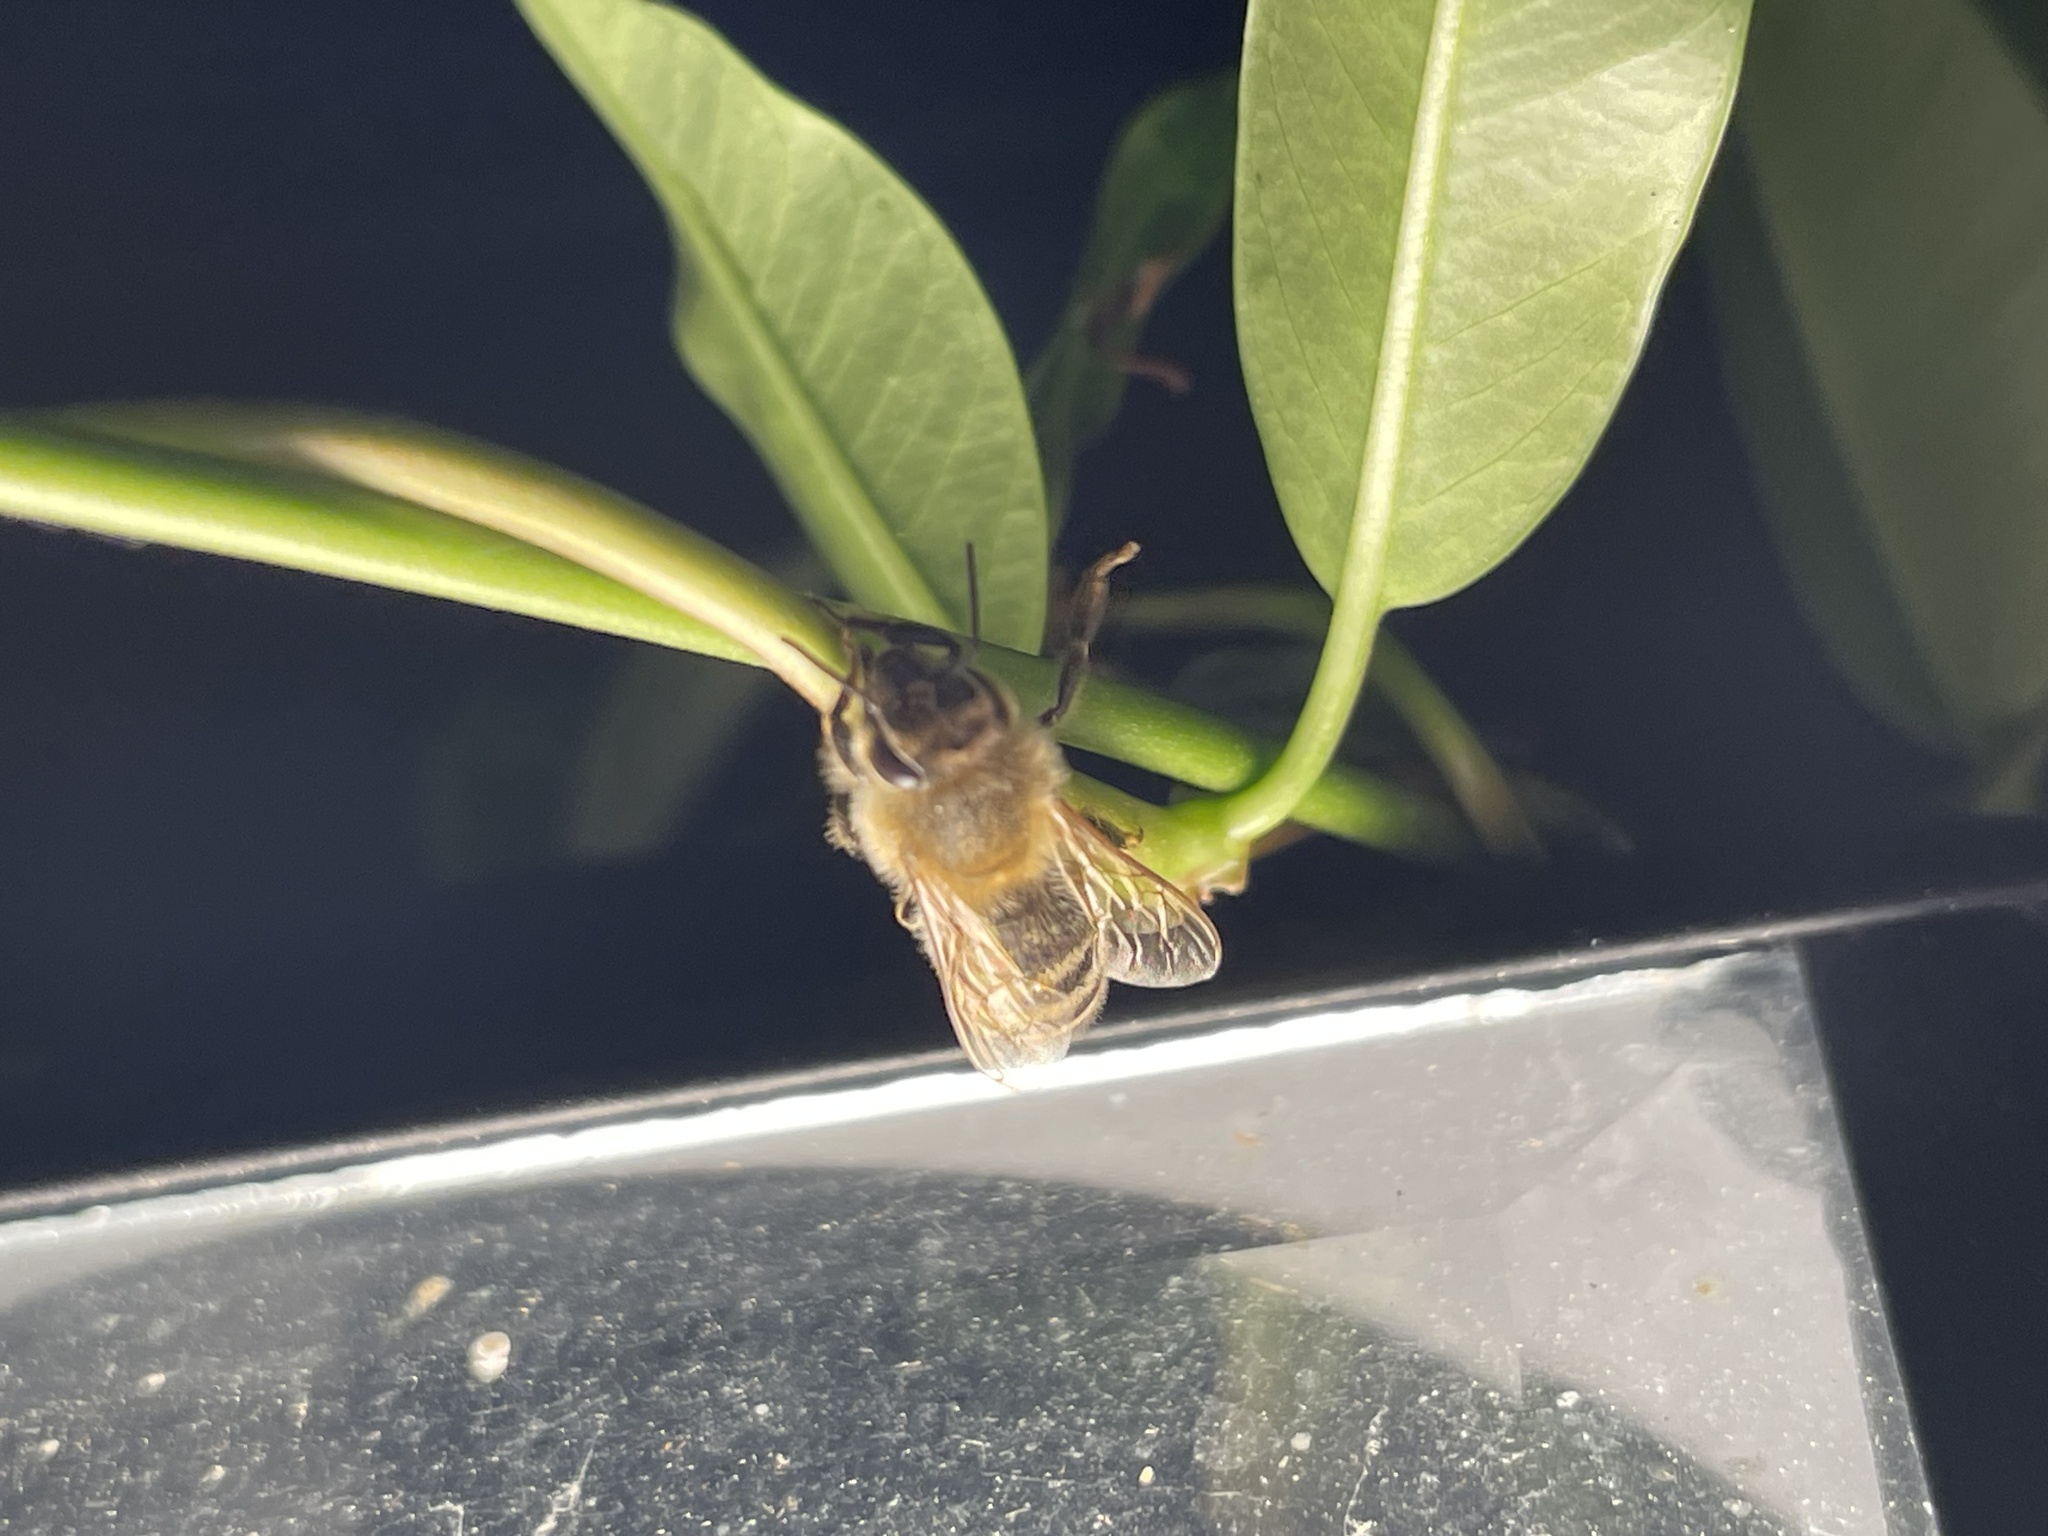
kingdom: Animalia
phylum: Arthropoda
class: Insecta
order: Hymenoptera
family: Apidae
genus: Apis
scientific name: Apis mellifera
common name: Honey bee
